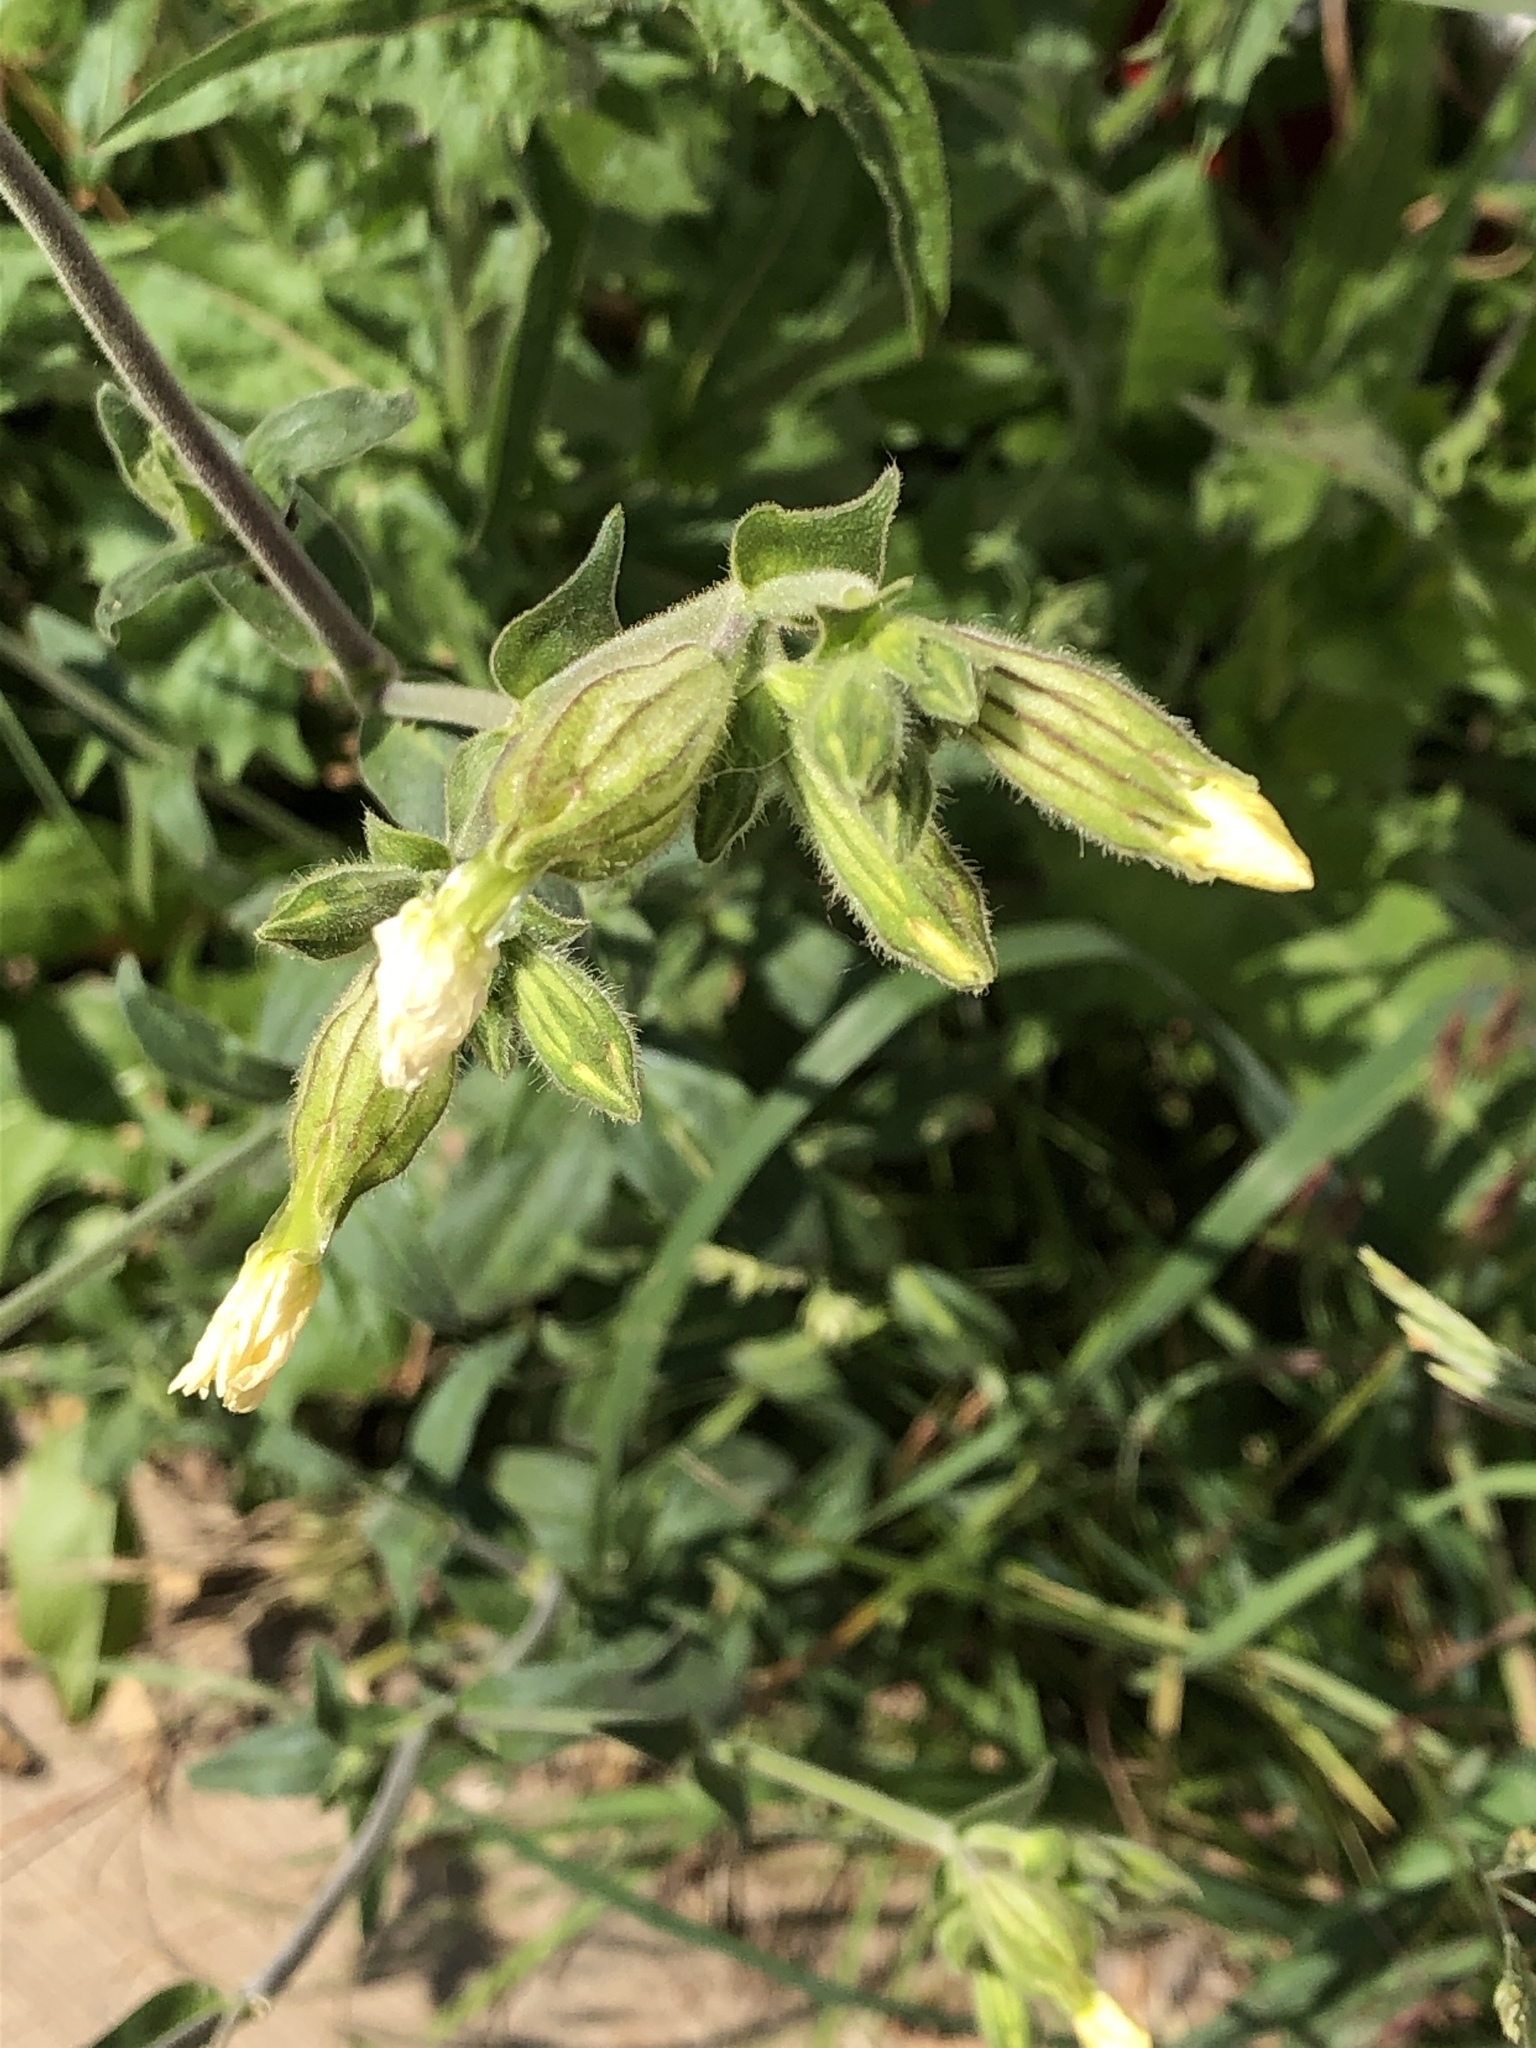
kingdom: Plantae
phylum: Tracheophyta
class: Magnoliopsida
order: Caryophyllales
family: Caryophyllaceae
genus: Silene
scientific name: Silene latifolia
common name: White campion
